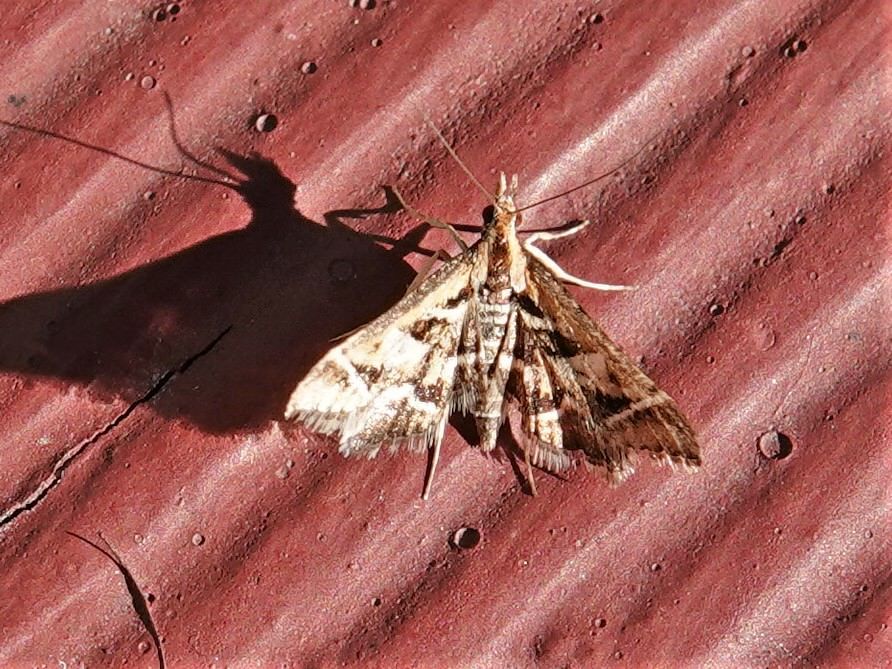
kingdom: Animalia
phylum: Arthropoda
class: Insecta
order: Lepidoptera
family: Crambidae
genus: Diasemia
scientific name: Diasemia grammalis
